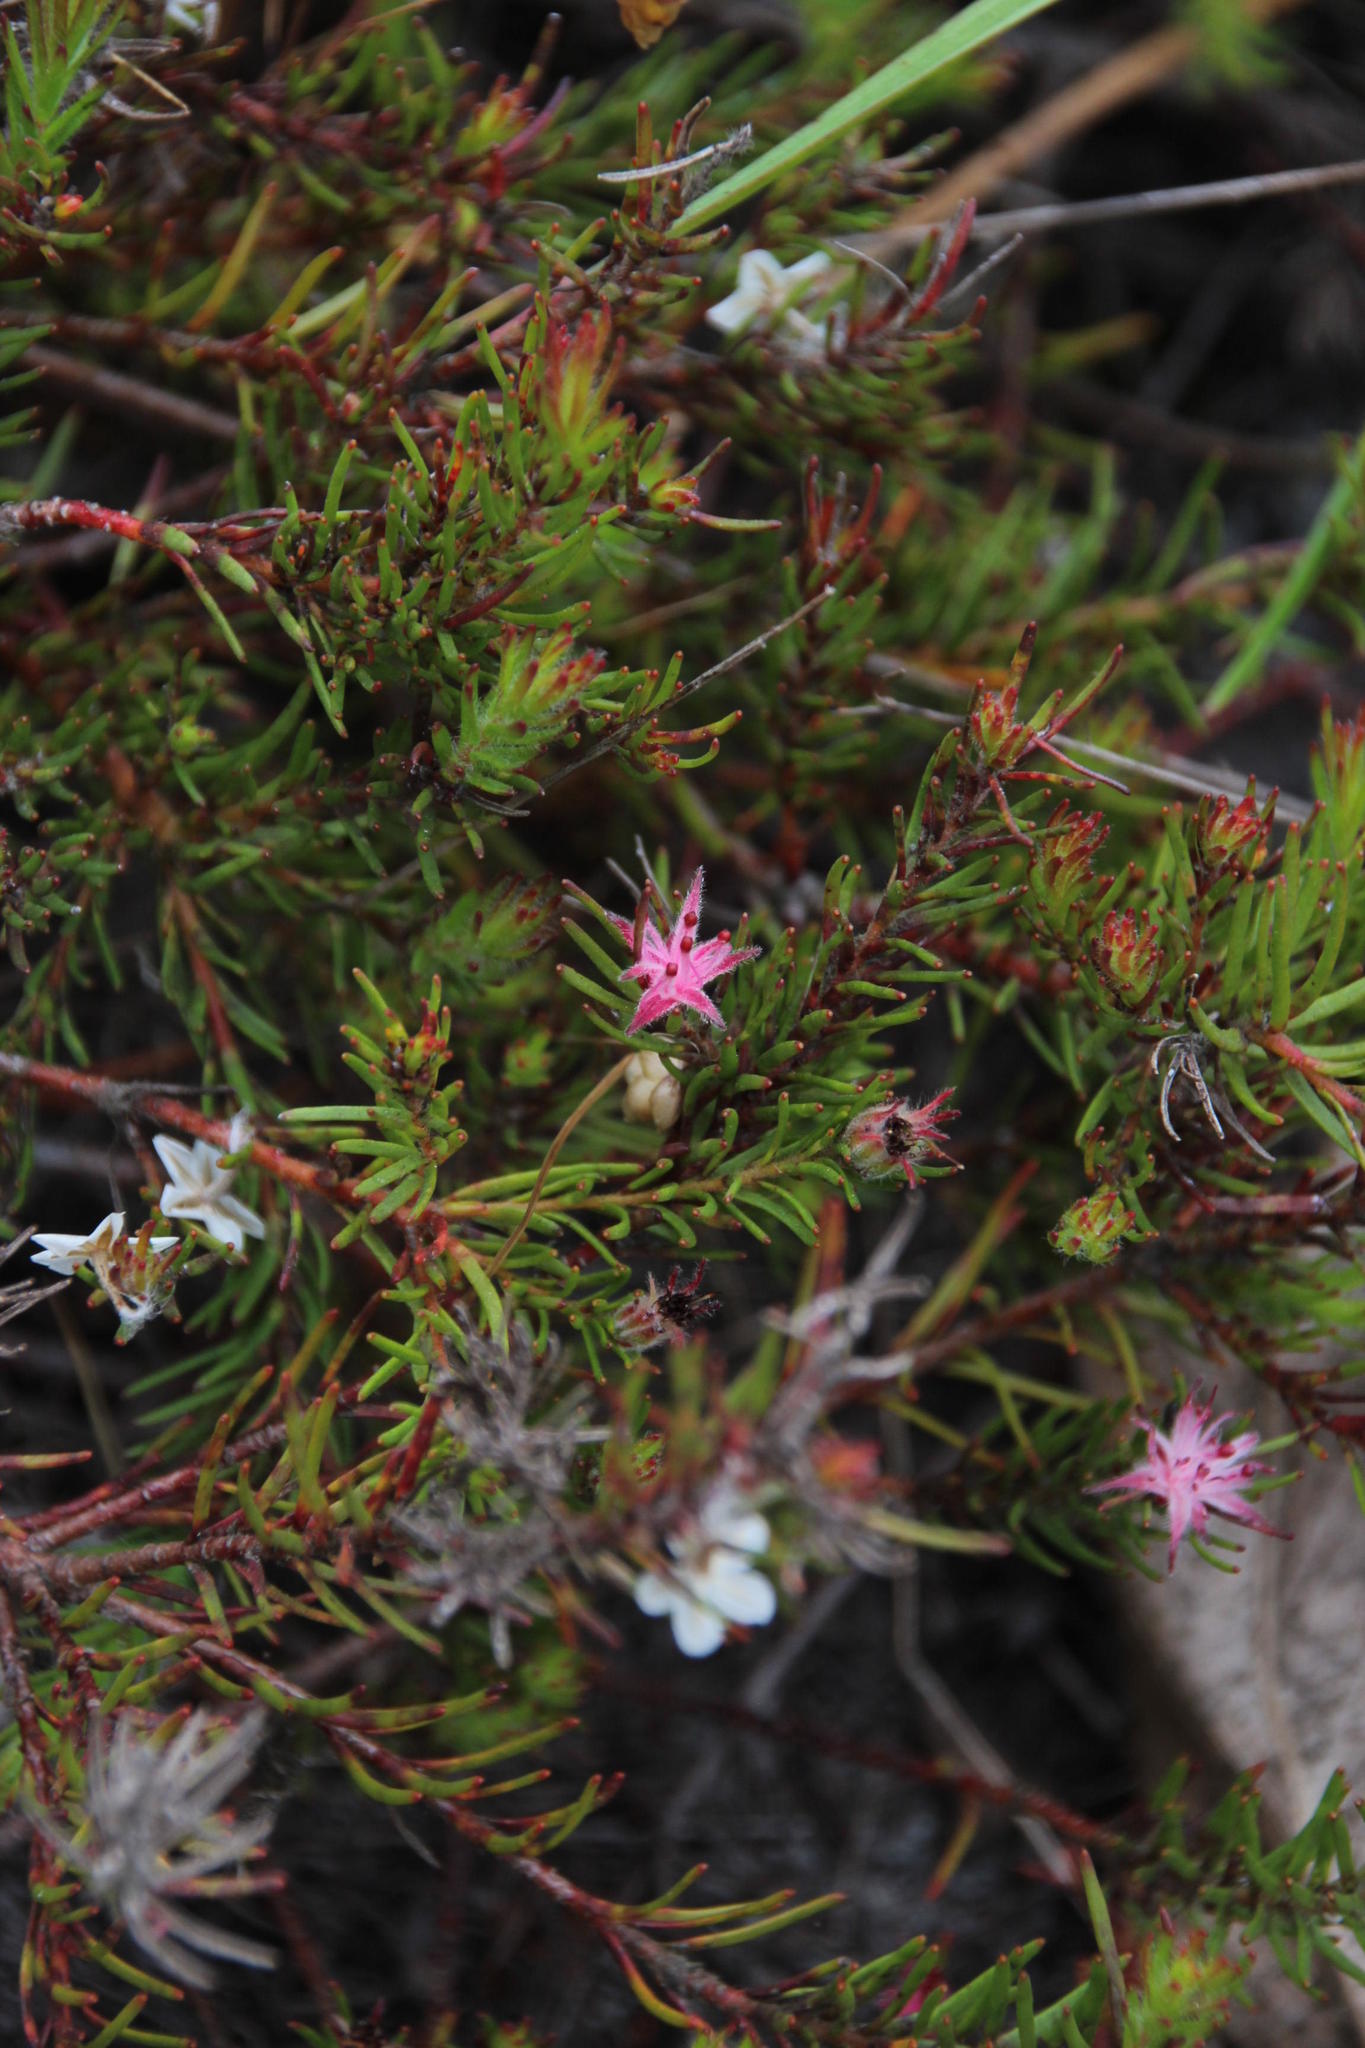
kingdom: Plantae
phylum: Tracheophyta
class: Magnoliopsida
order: Proteales
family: Proteaceae
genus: Diastella
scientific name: Diastella proteoides
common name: Flats silkypuff
